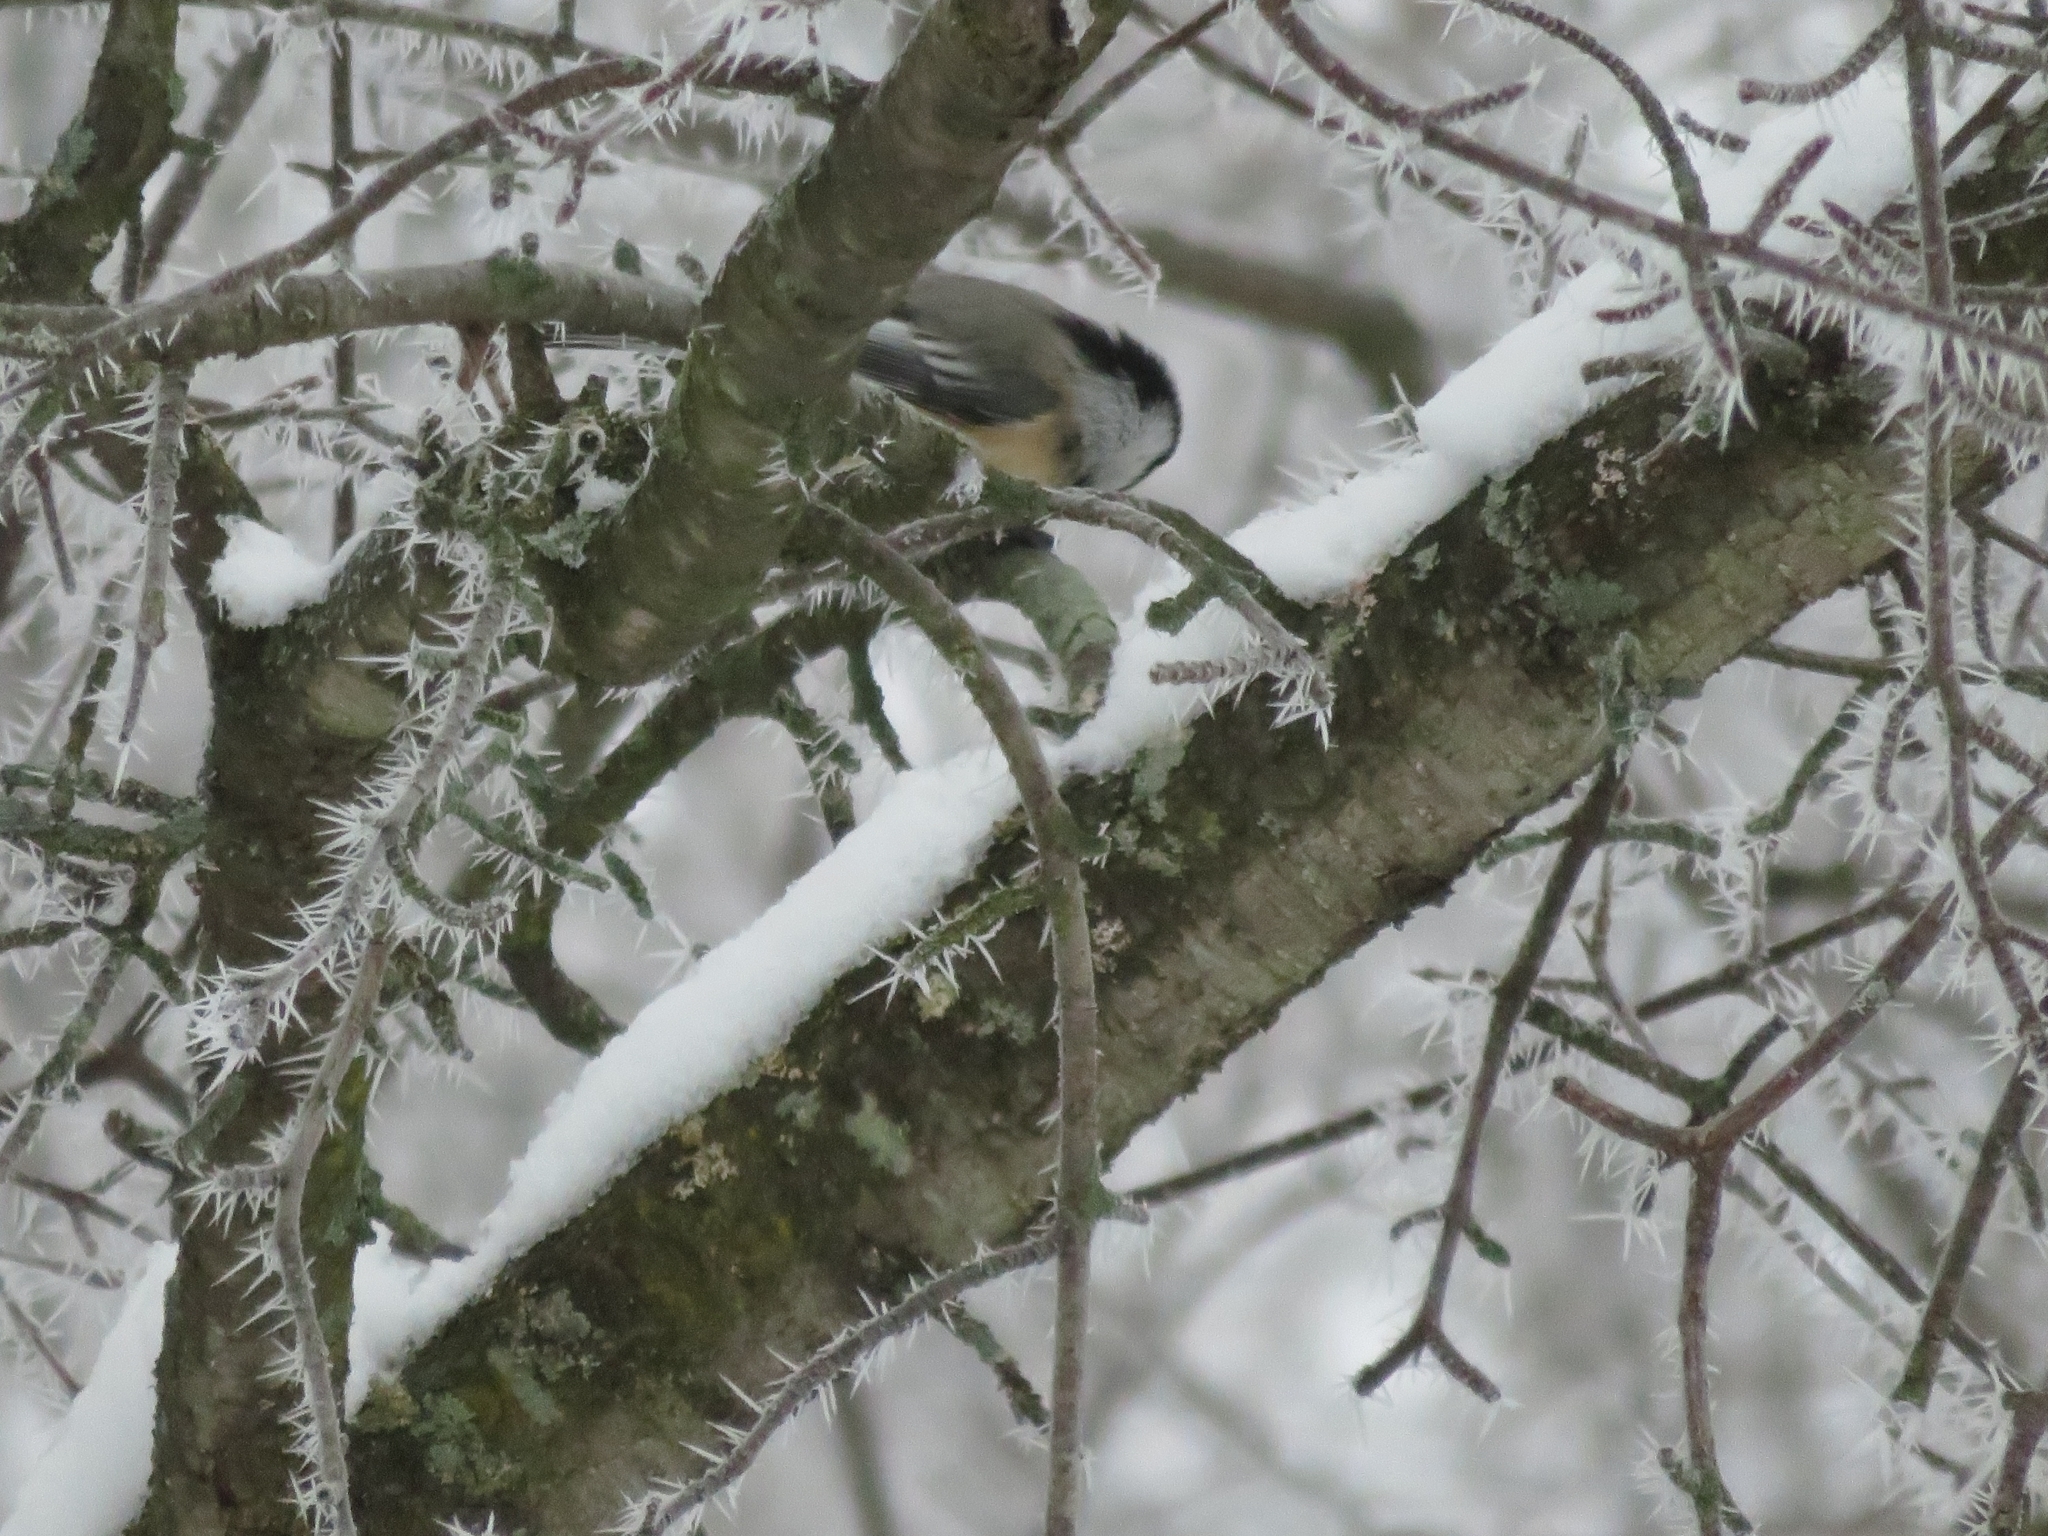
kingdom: Animalia
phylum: Chordata
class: Aves
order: Passeriformes
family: Paridae
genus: Poecile
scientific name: Poecile atricapillus
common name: Black-capped chickadee
